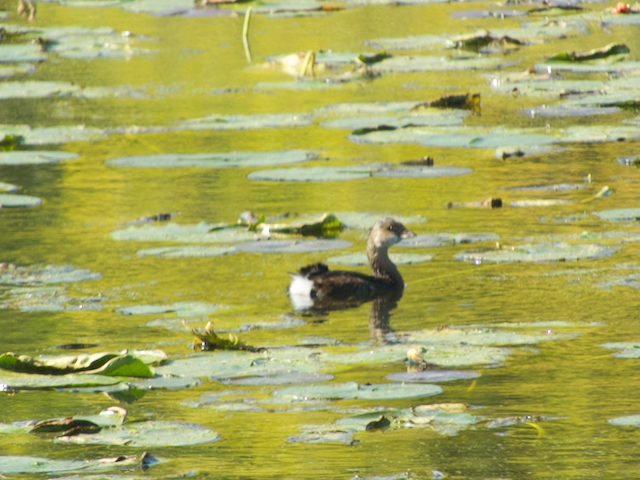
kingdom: Animalia
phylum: Chordata
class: Aves
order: Podicipediformes
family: Podicipedidae
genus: Podilymbus
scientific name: Podilymbus podiceps
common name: Pied-billed grebe
